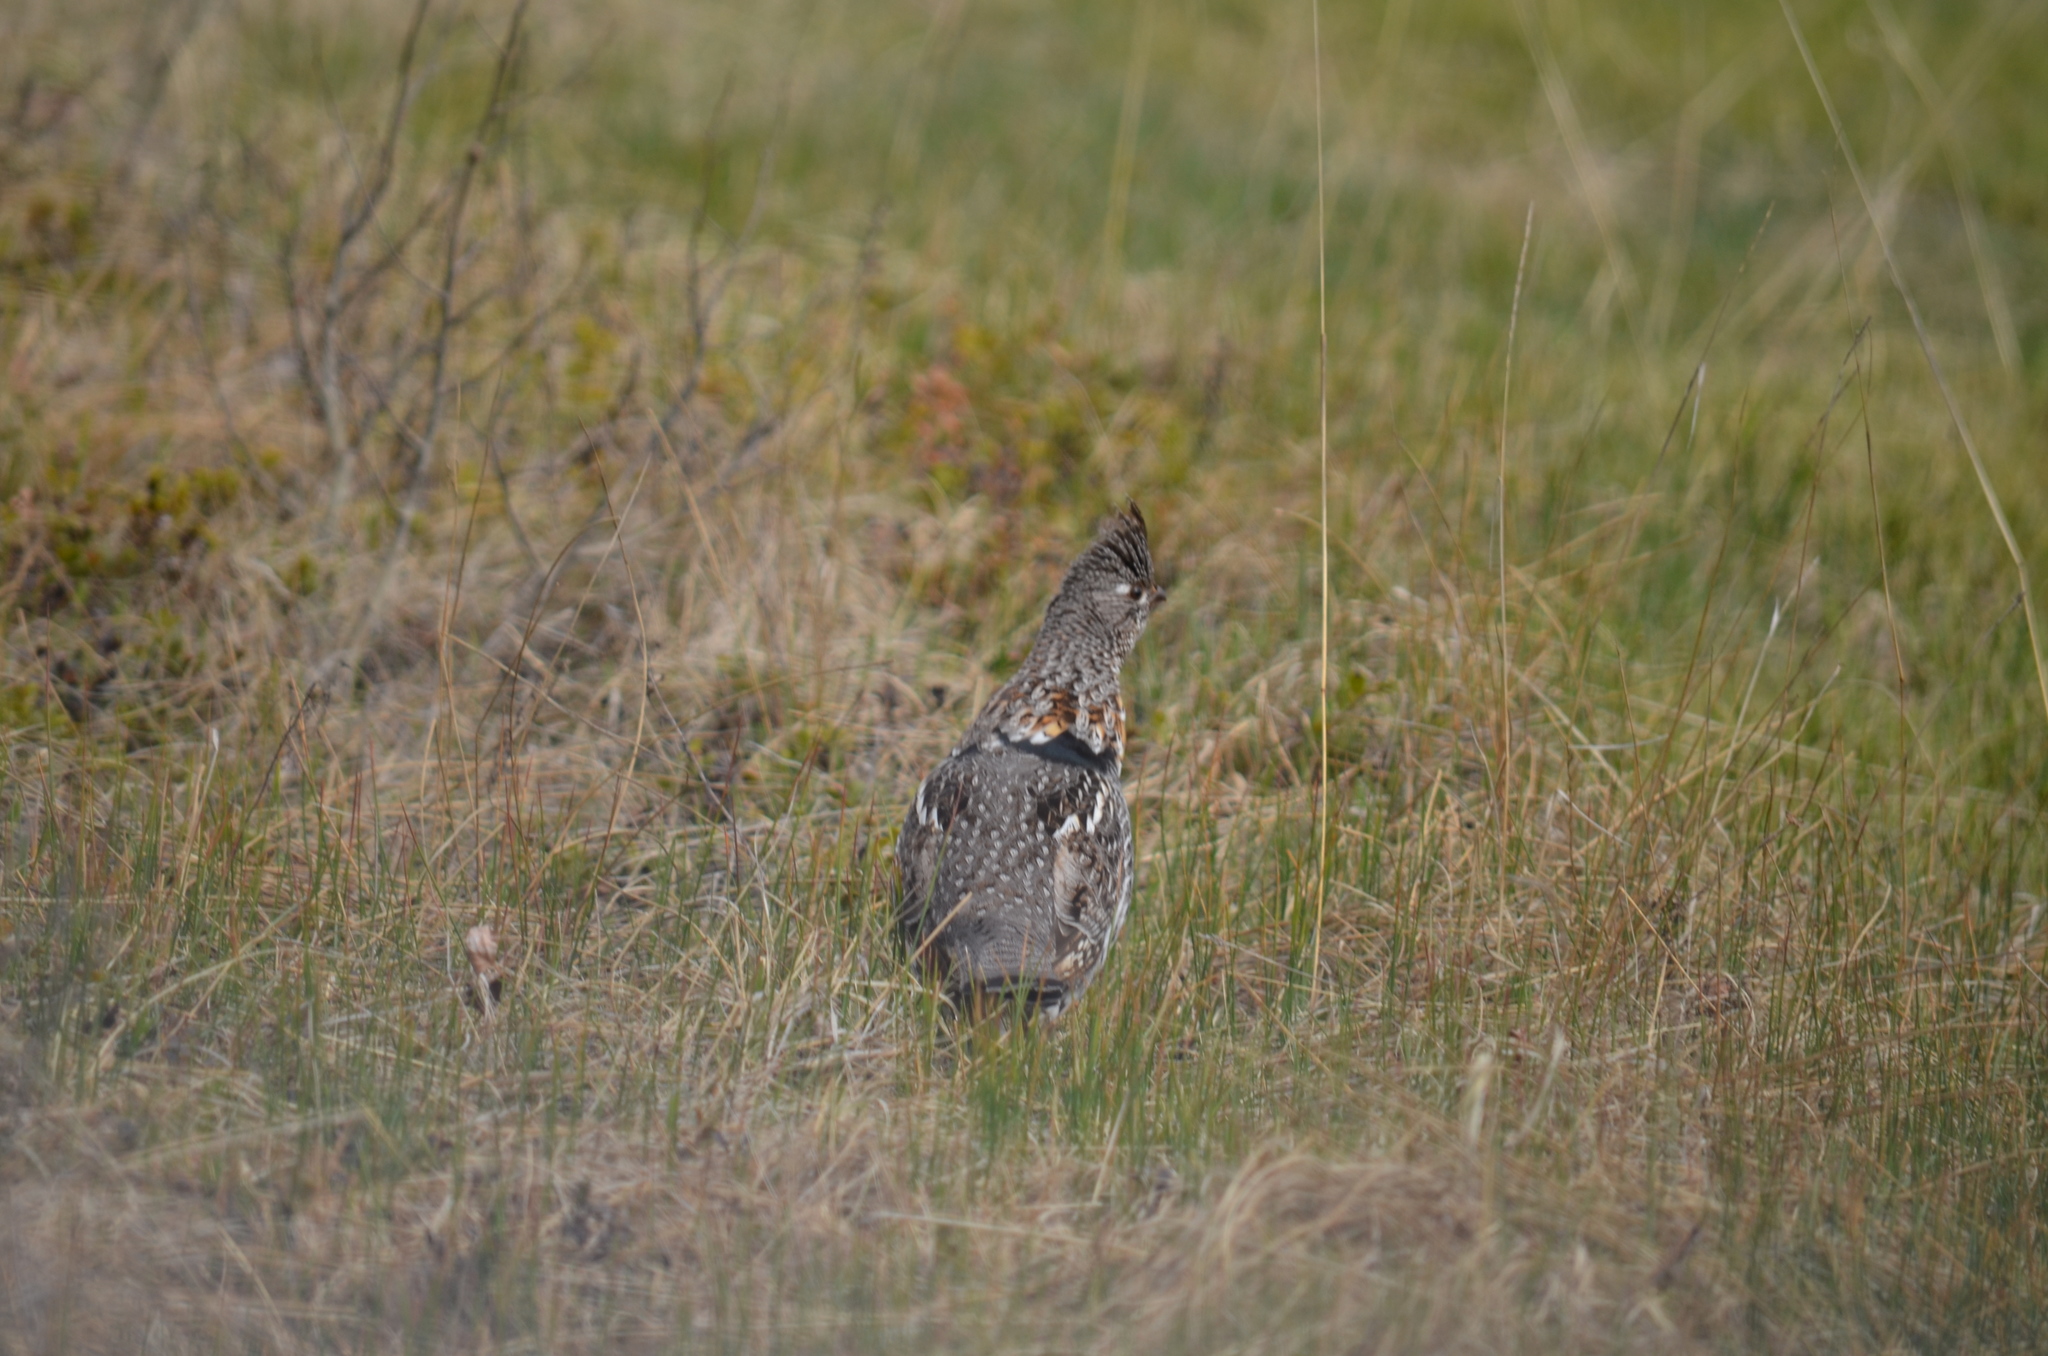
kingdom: Animalia
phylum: Chordata
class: Aves
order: Galliformes
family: Phasianidae
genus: Bonasa
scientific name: Bonasa umbellus
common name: Ruffed grouse
